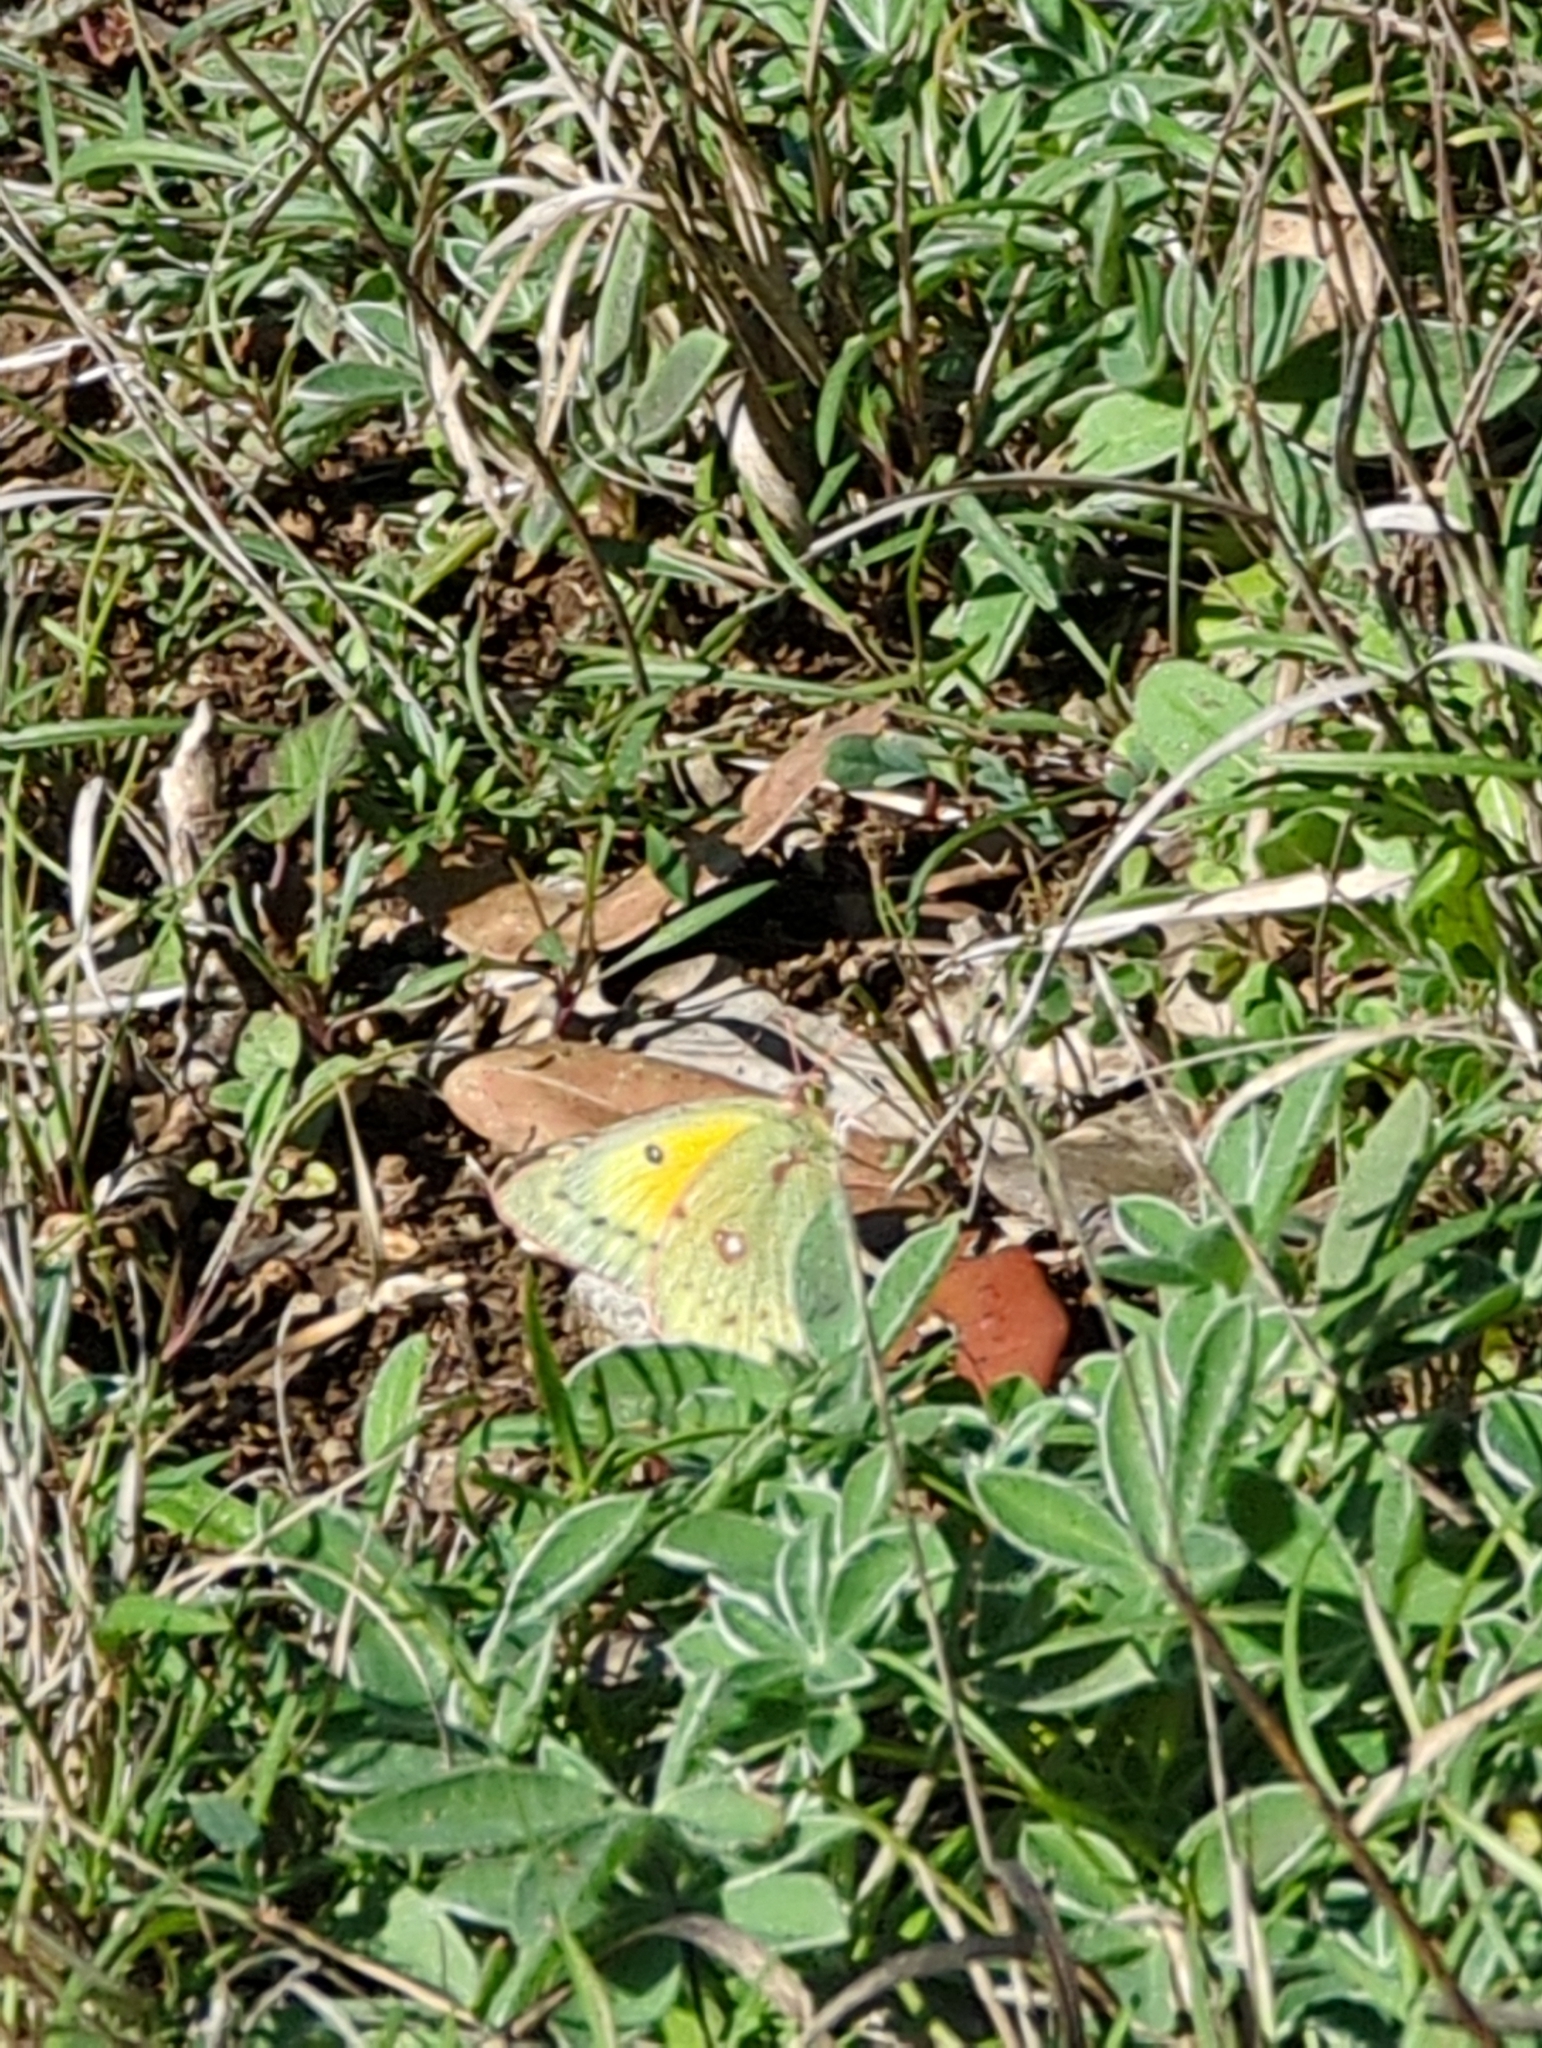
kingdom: Animalia
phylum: Arthropoda
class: Insecta
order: Lepidoptera
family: Pieridae
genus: Colias
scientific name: Colias eurytheme
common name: Alfalfa butterfly
